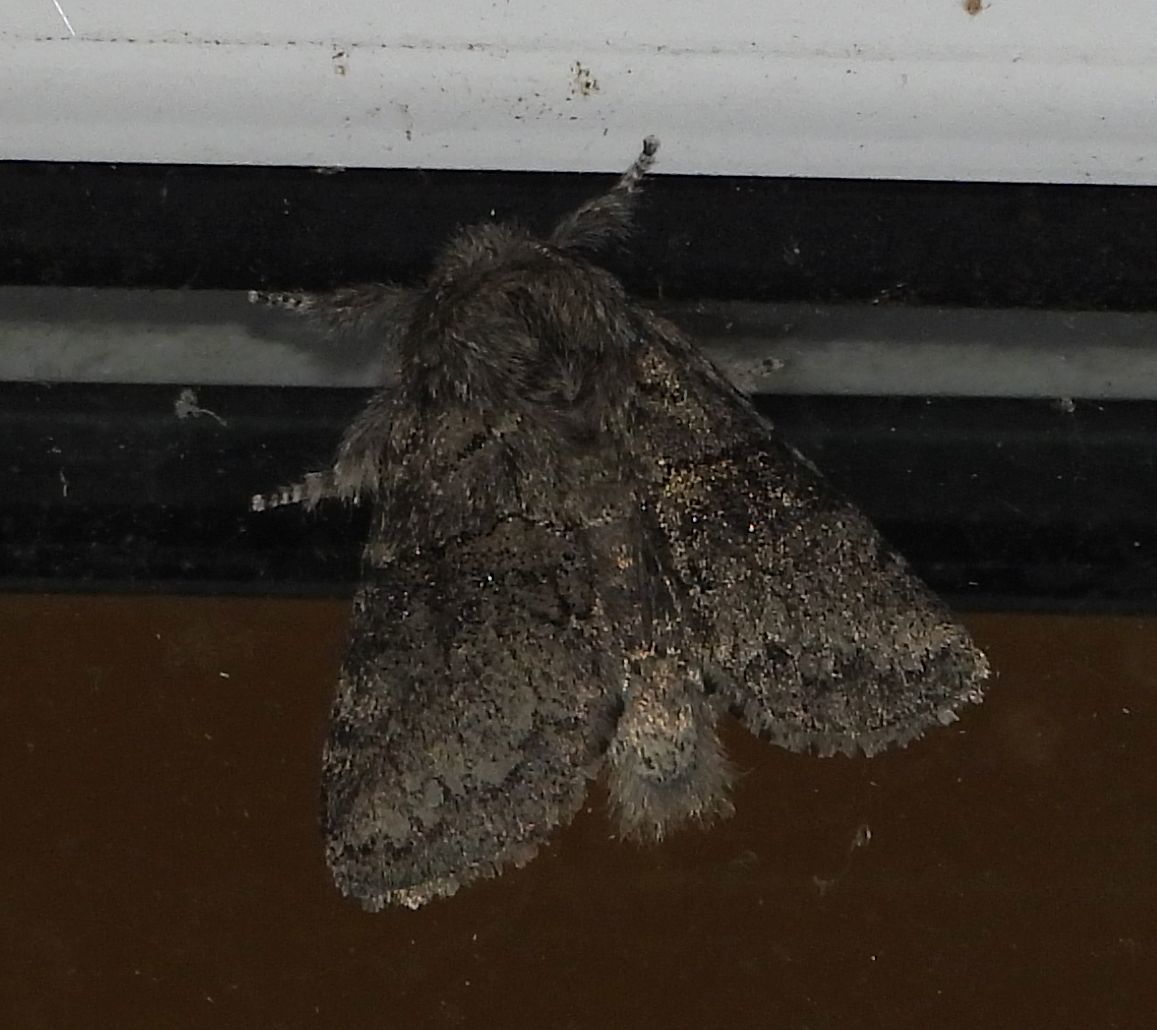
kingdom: Animalia
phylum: Arthropoda
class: Insecta
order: Lepidoptera
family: Notodontidae
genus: Gluphisia
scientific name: Gluphisia septentrionis
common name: Common gluphisia
